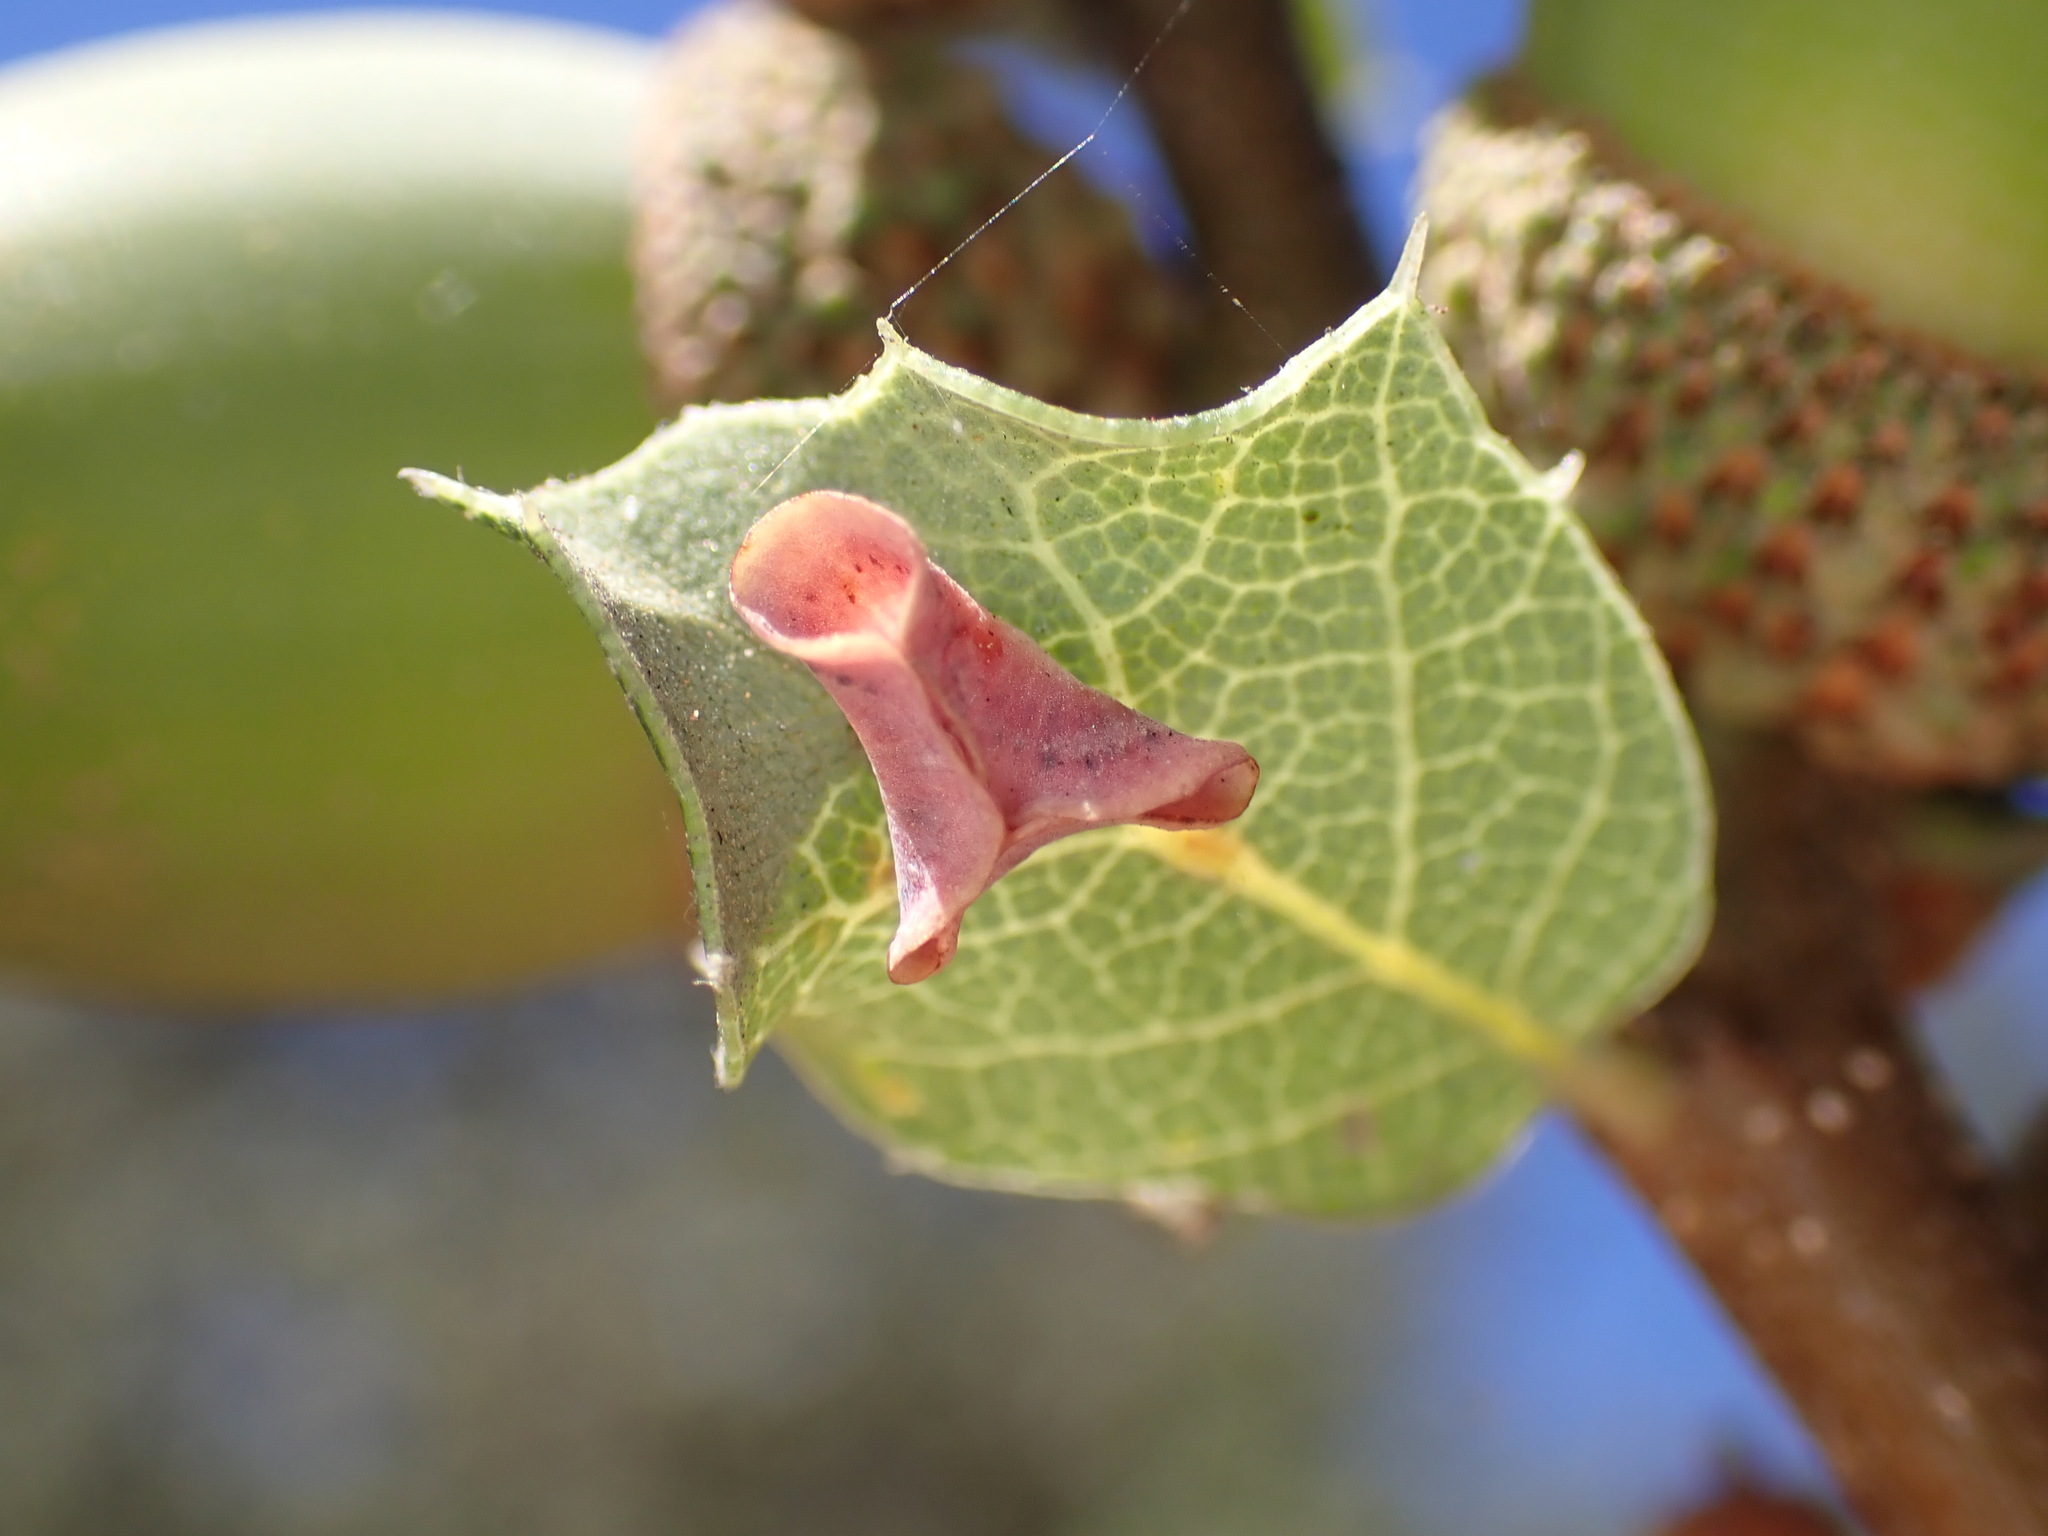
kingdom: Animalia
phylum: Arthropoda
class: Insecta
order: Hymenoptera
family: Cynipidae
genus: Andricus
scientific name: Andricus
